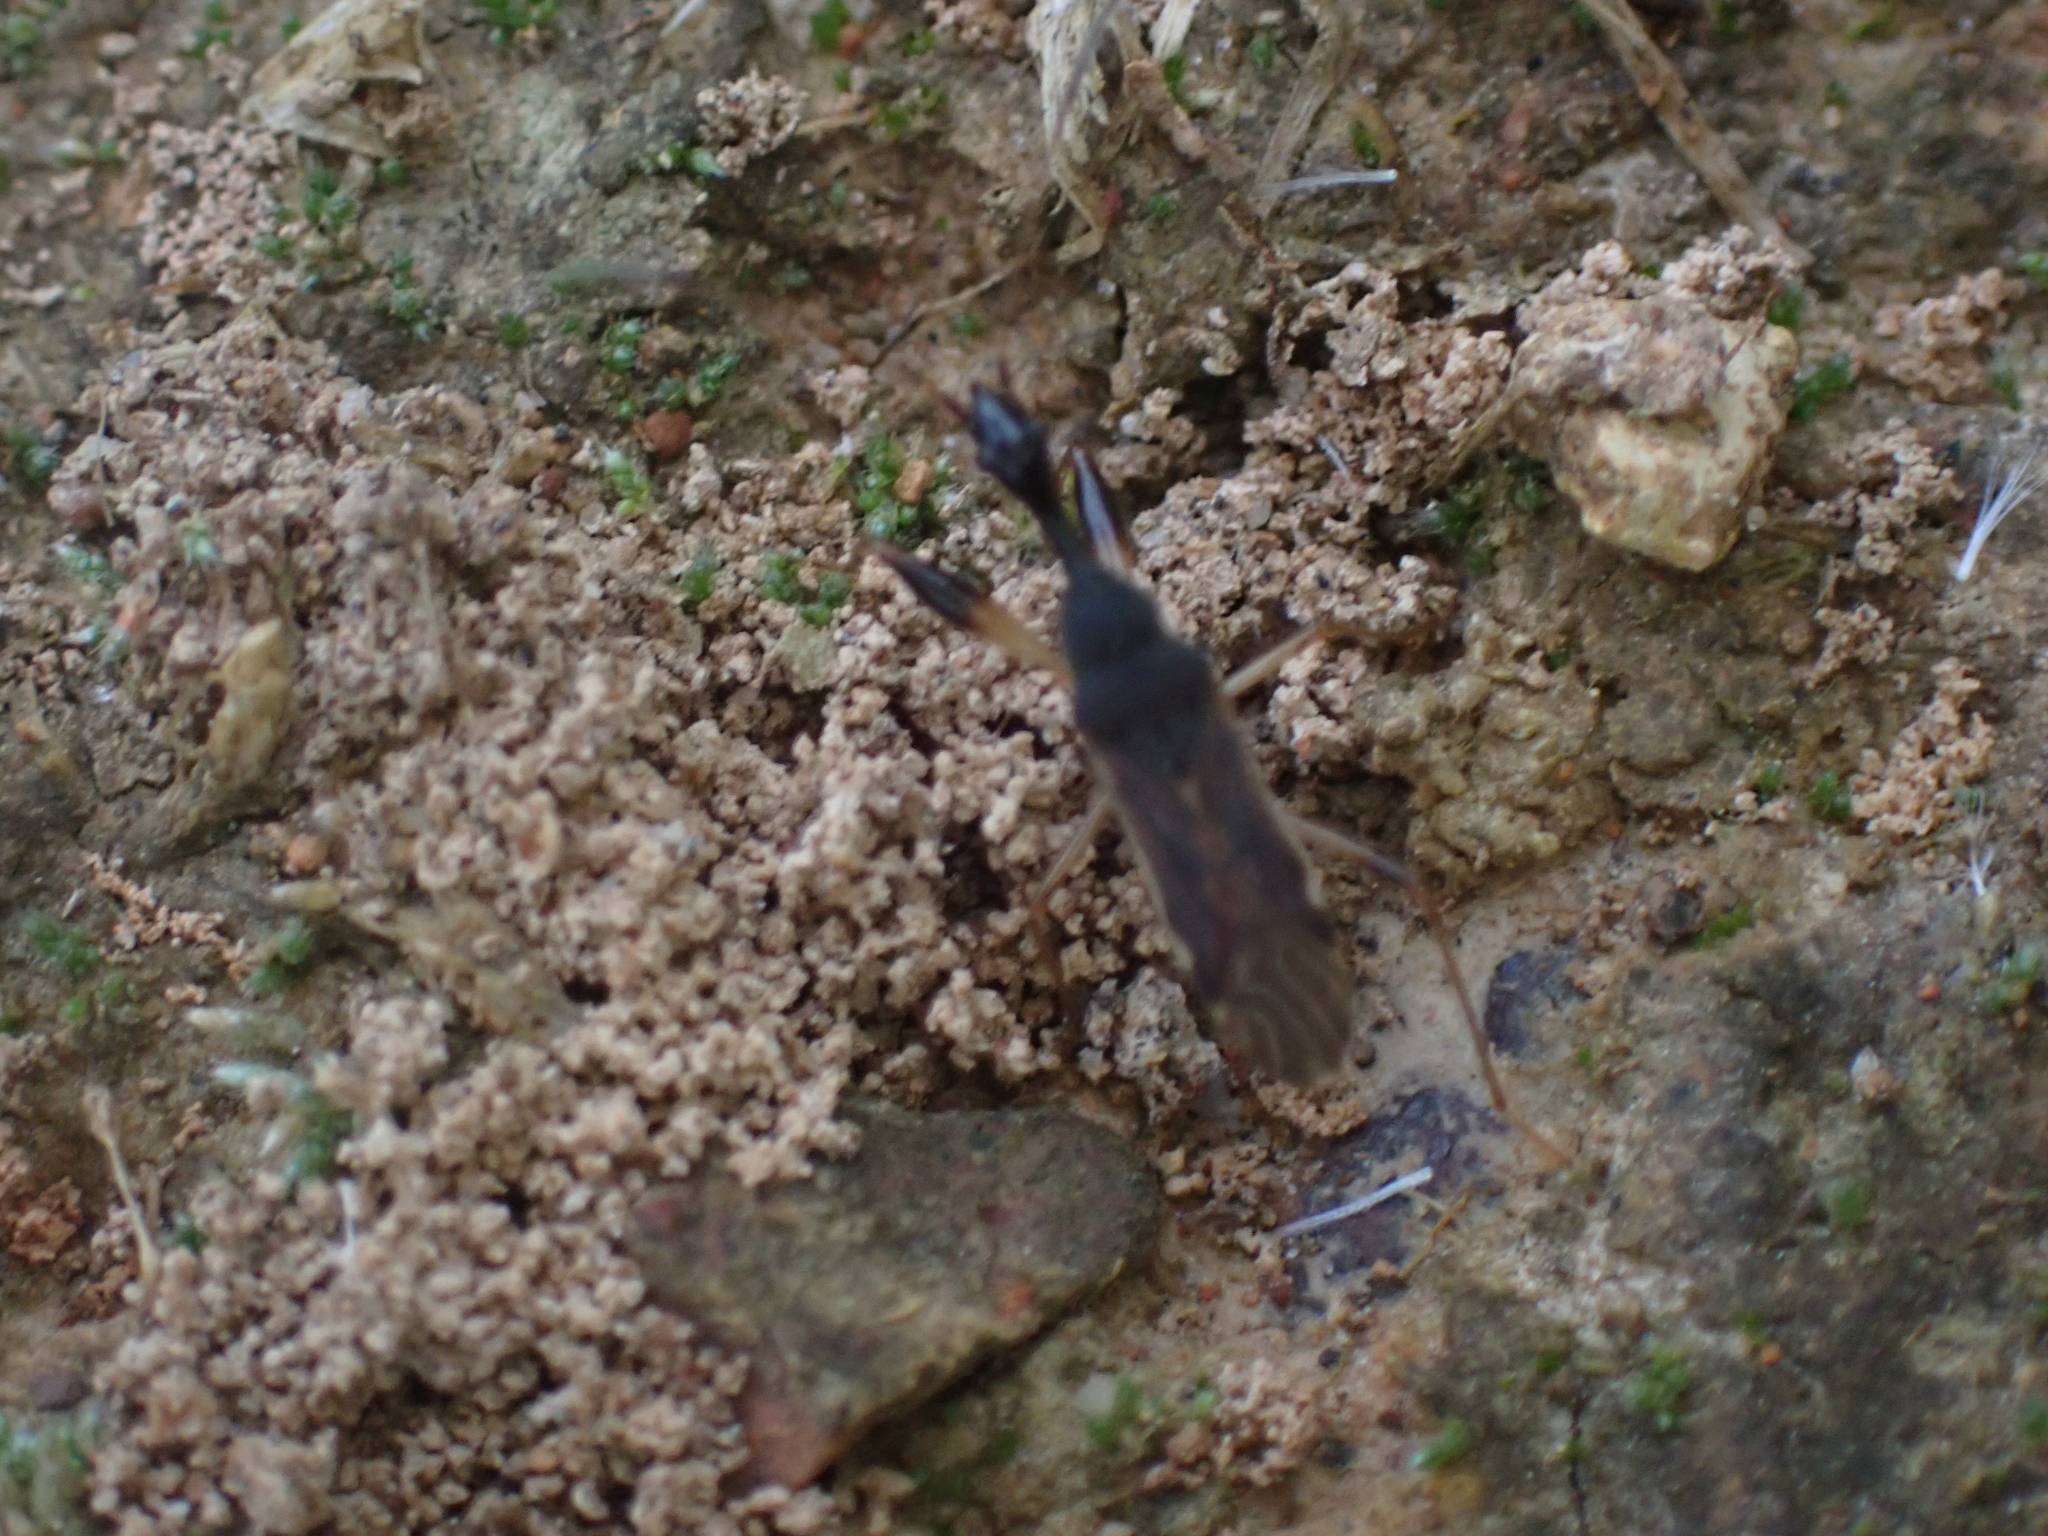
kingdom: Animalia
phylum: Arthropoda
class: Insecta
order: Hemiptera
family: Rhyparochromidae
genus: Myodocha
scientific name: Myodocha serripes
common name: Long-necked seed bug
